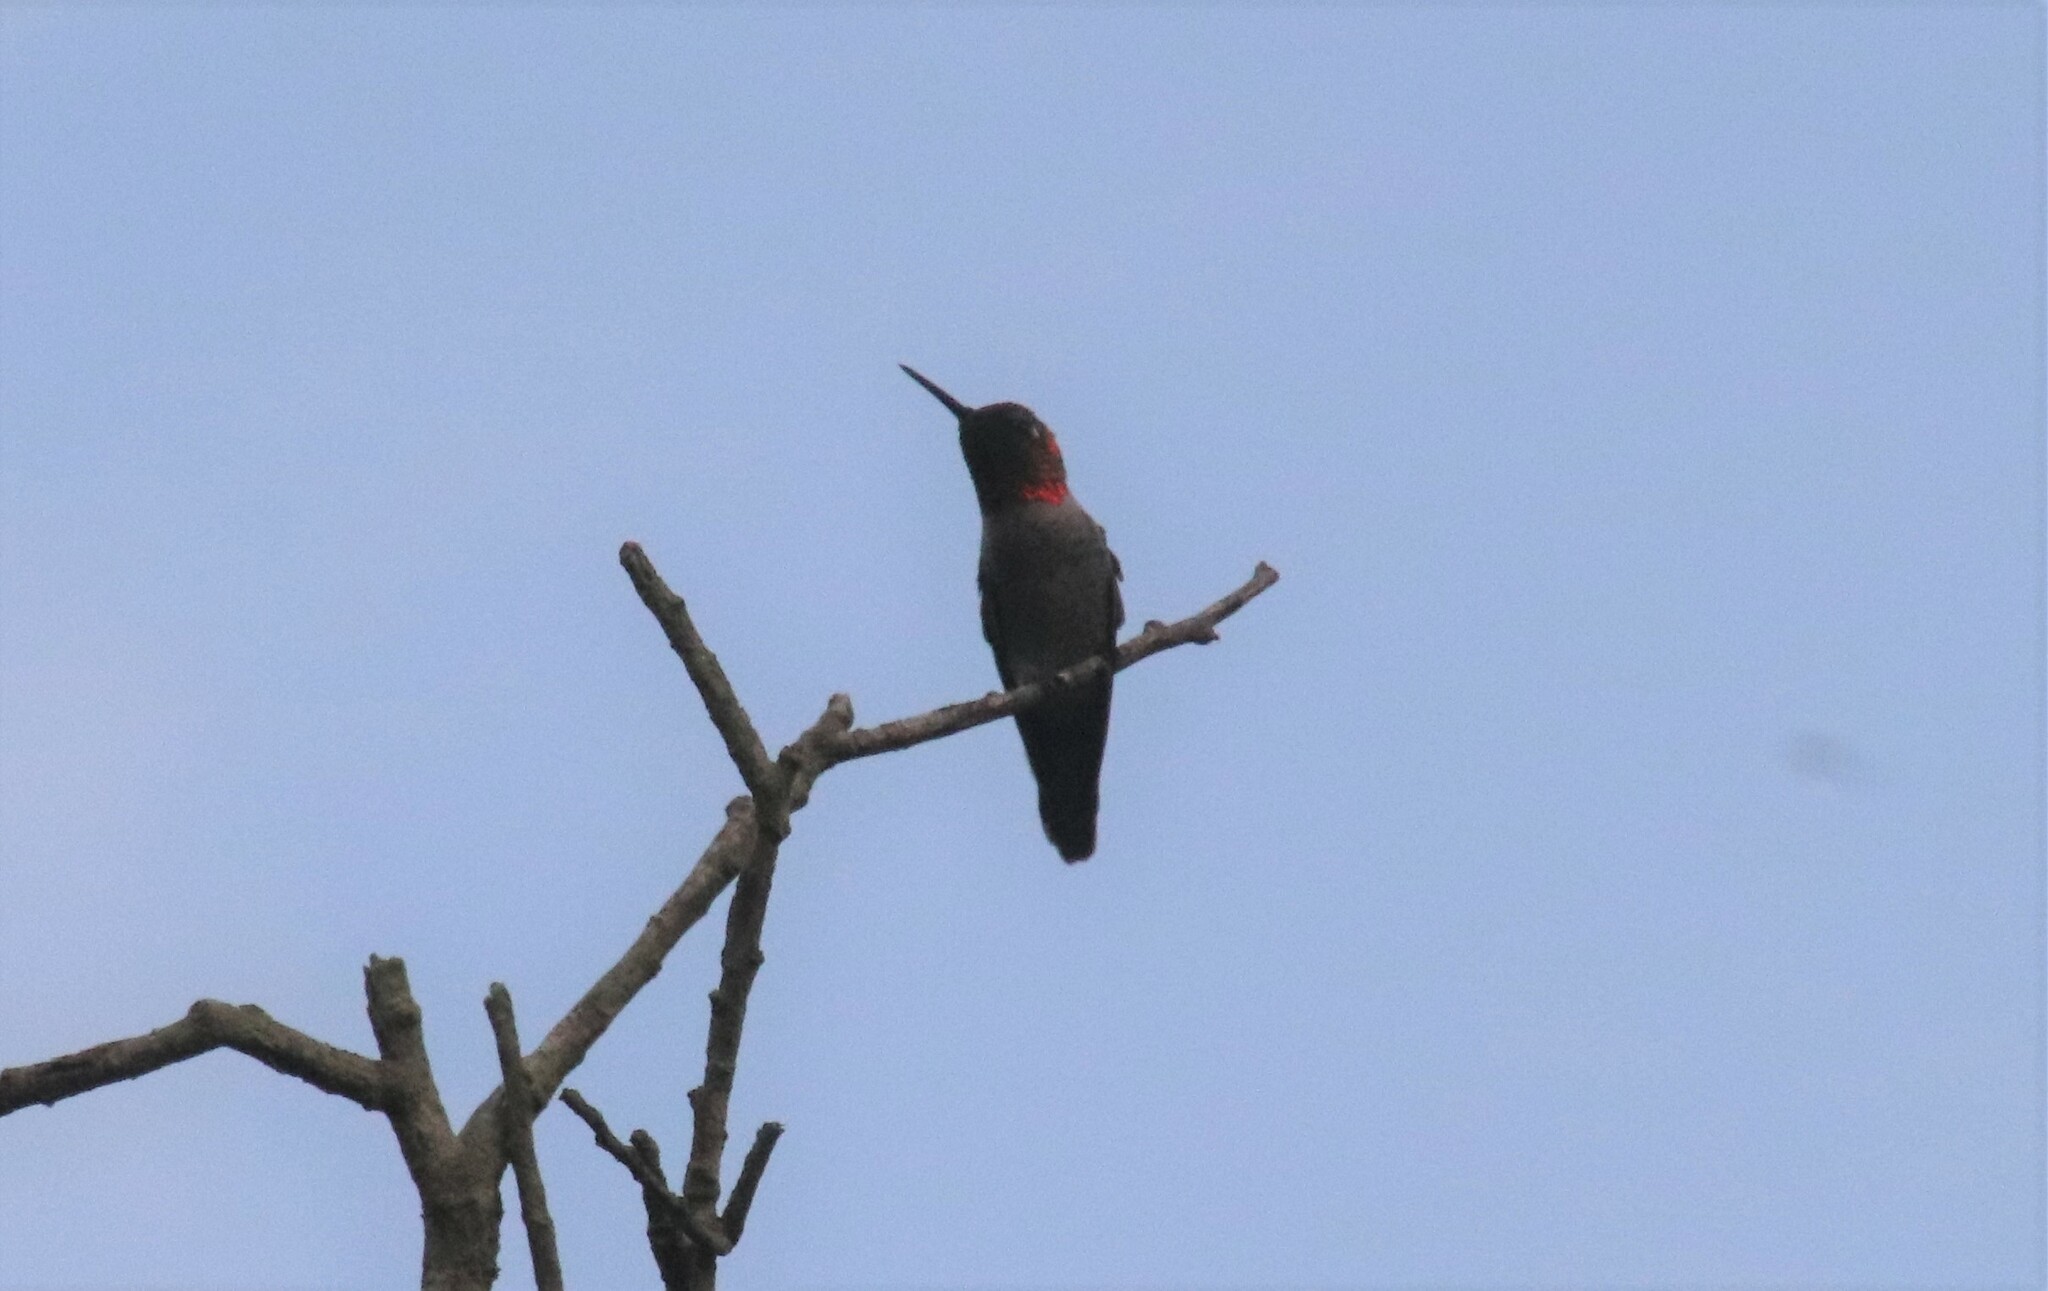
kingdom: Animalia
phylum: Chordata
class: Aves
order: Apodiformes
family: Trochilidae
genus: Calypte
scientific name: Calypte anna
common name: Anna's hummingbird
